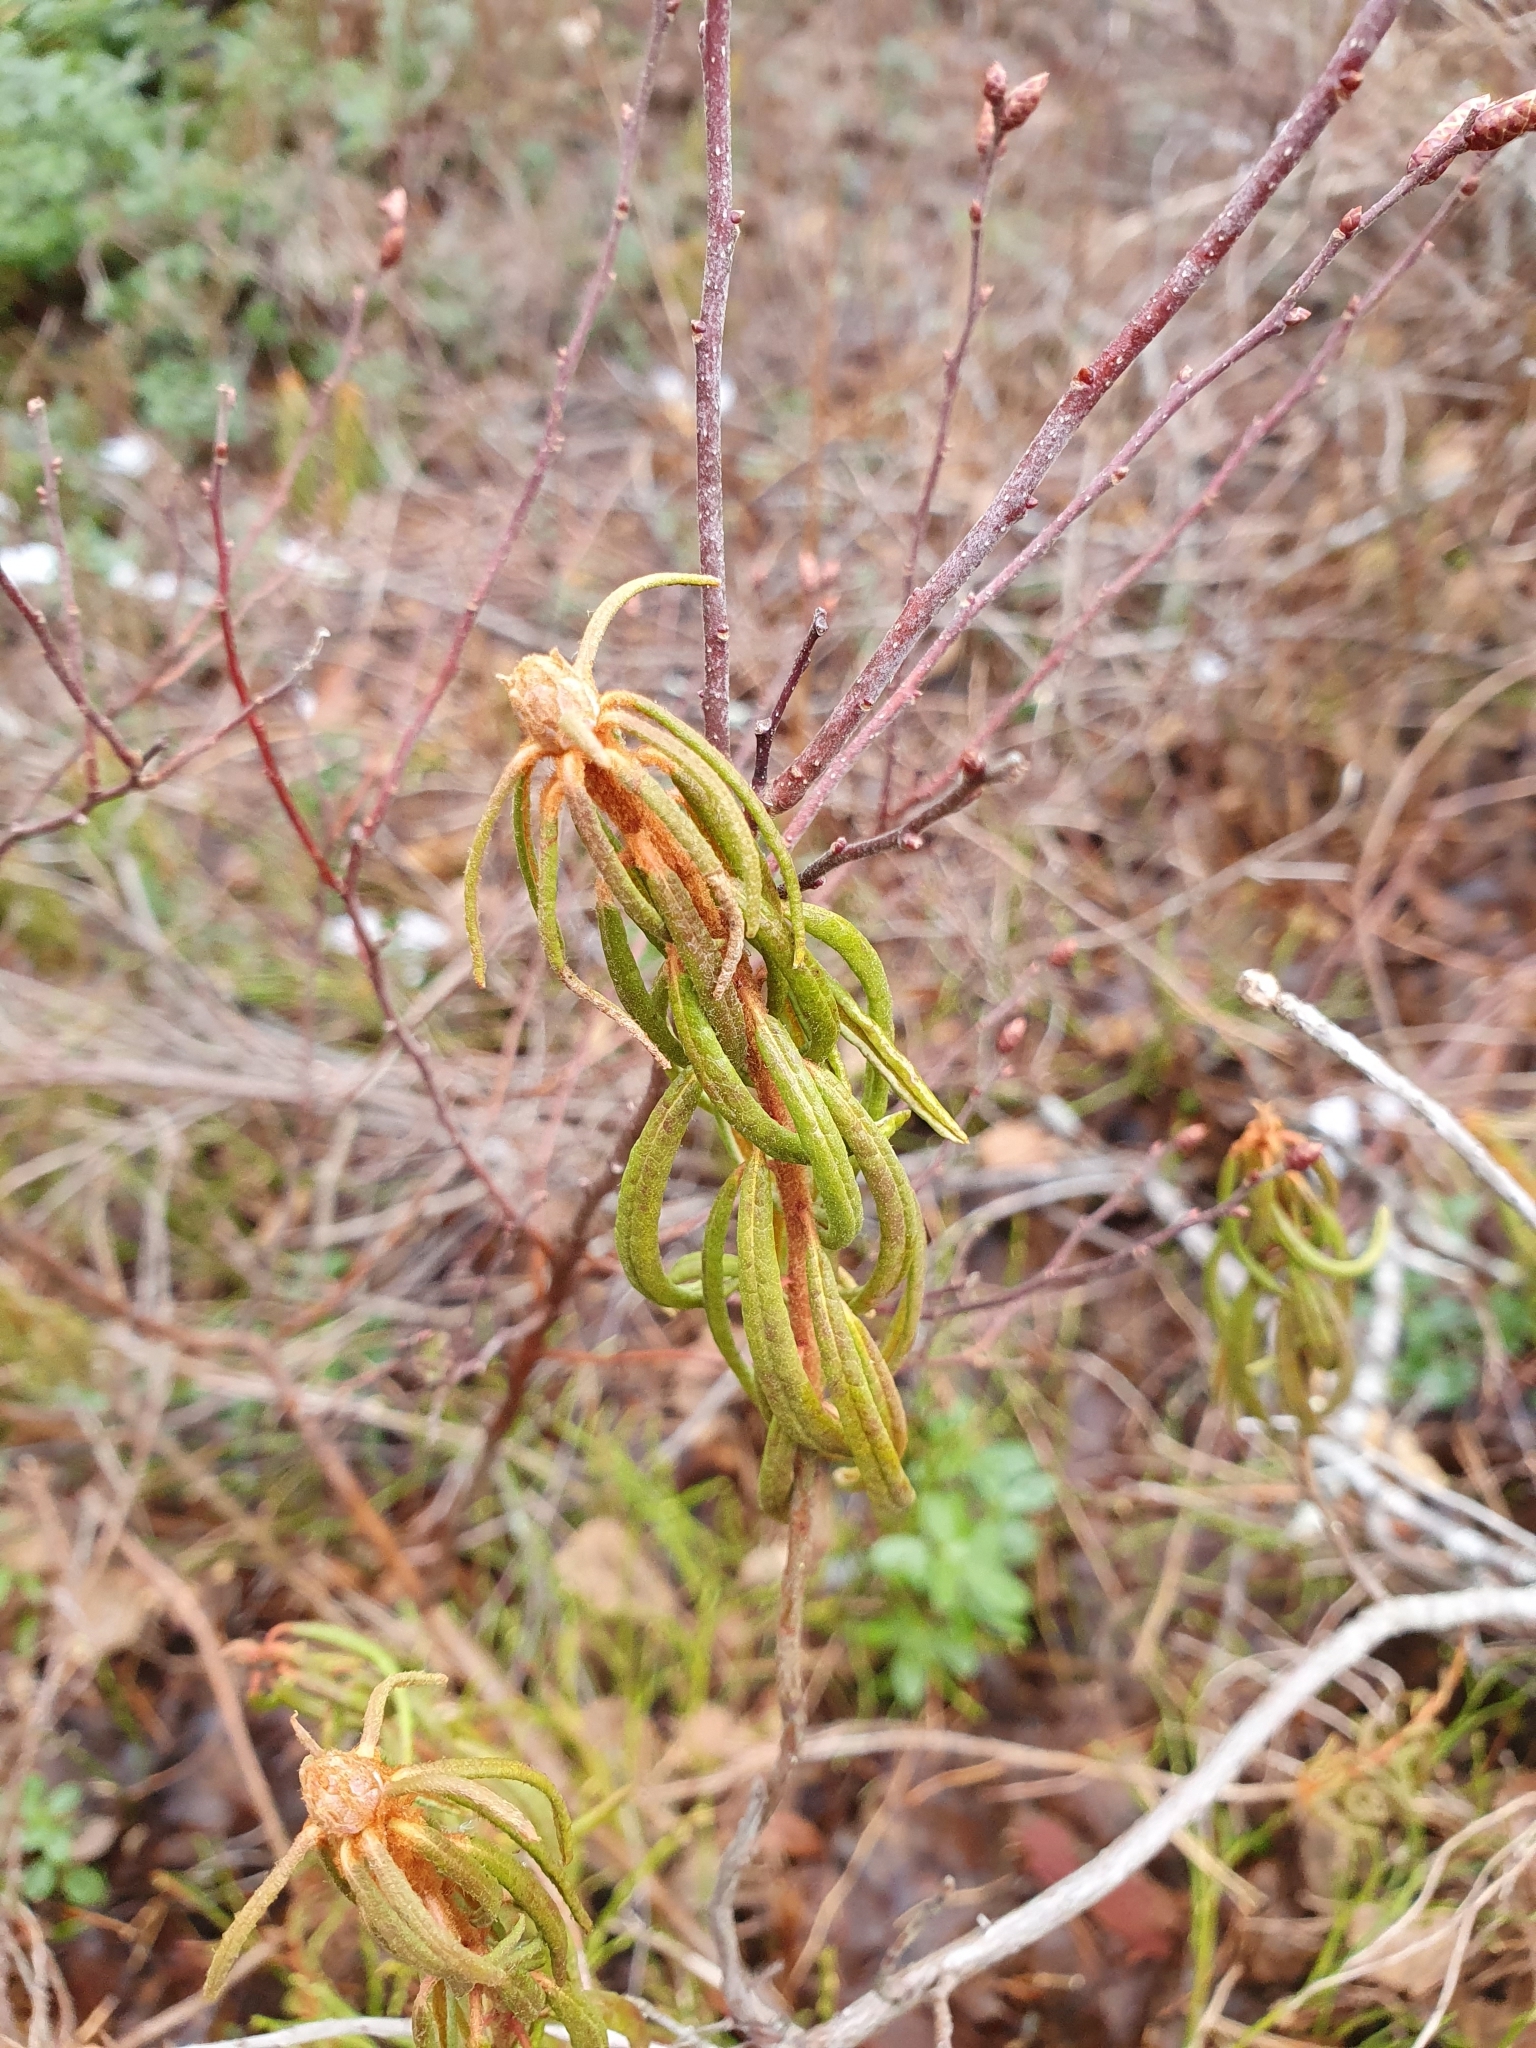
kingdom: Plantae
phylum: Tracheophyta
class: Magnoliopsida
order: Ericales
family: Ericaceae
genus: Rhododendron
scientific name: Rhododendron tomentosum
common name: Marsh labrador tea
